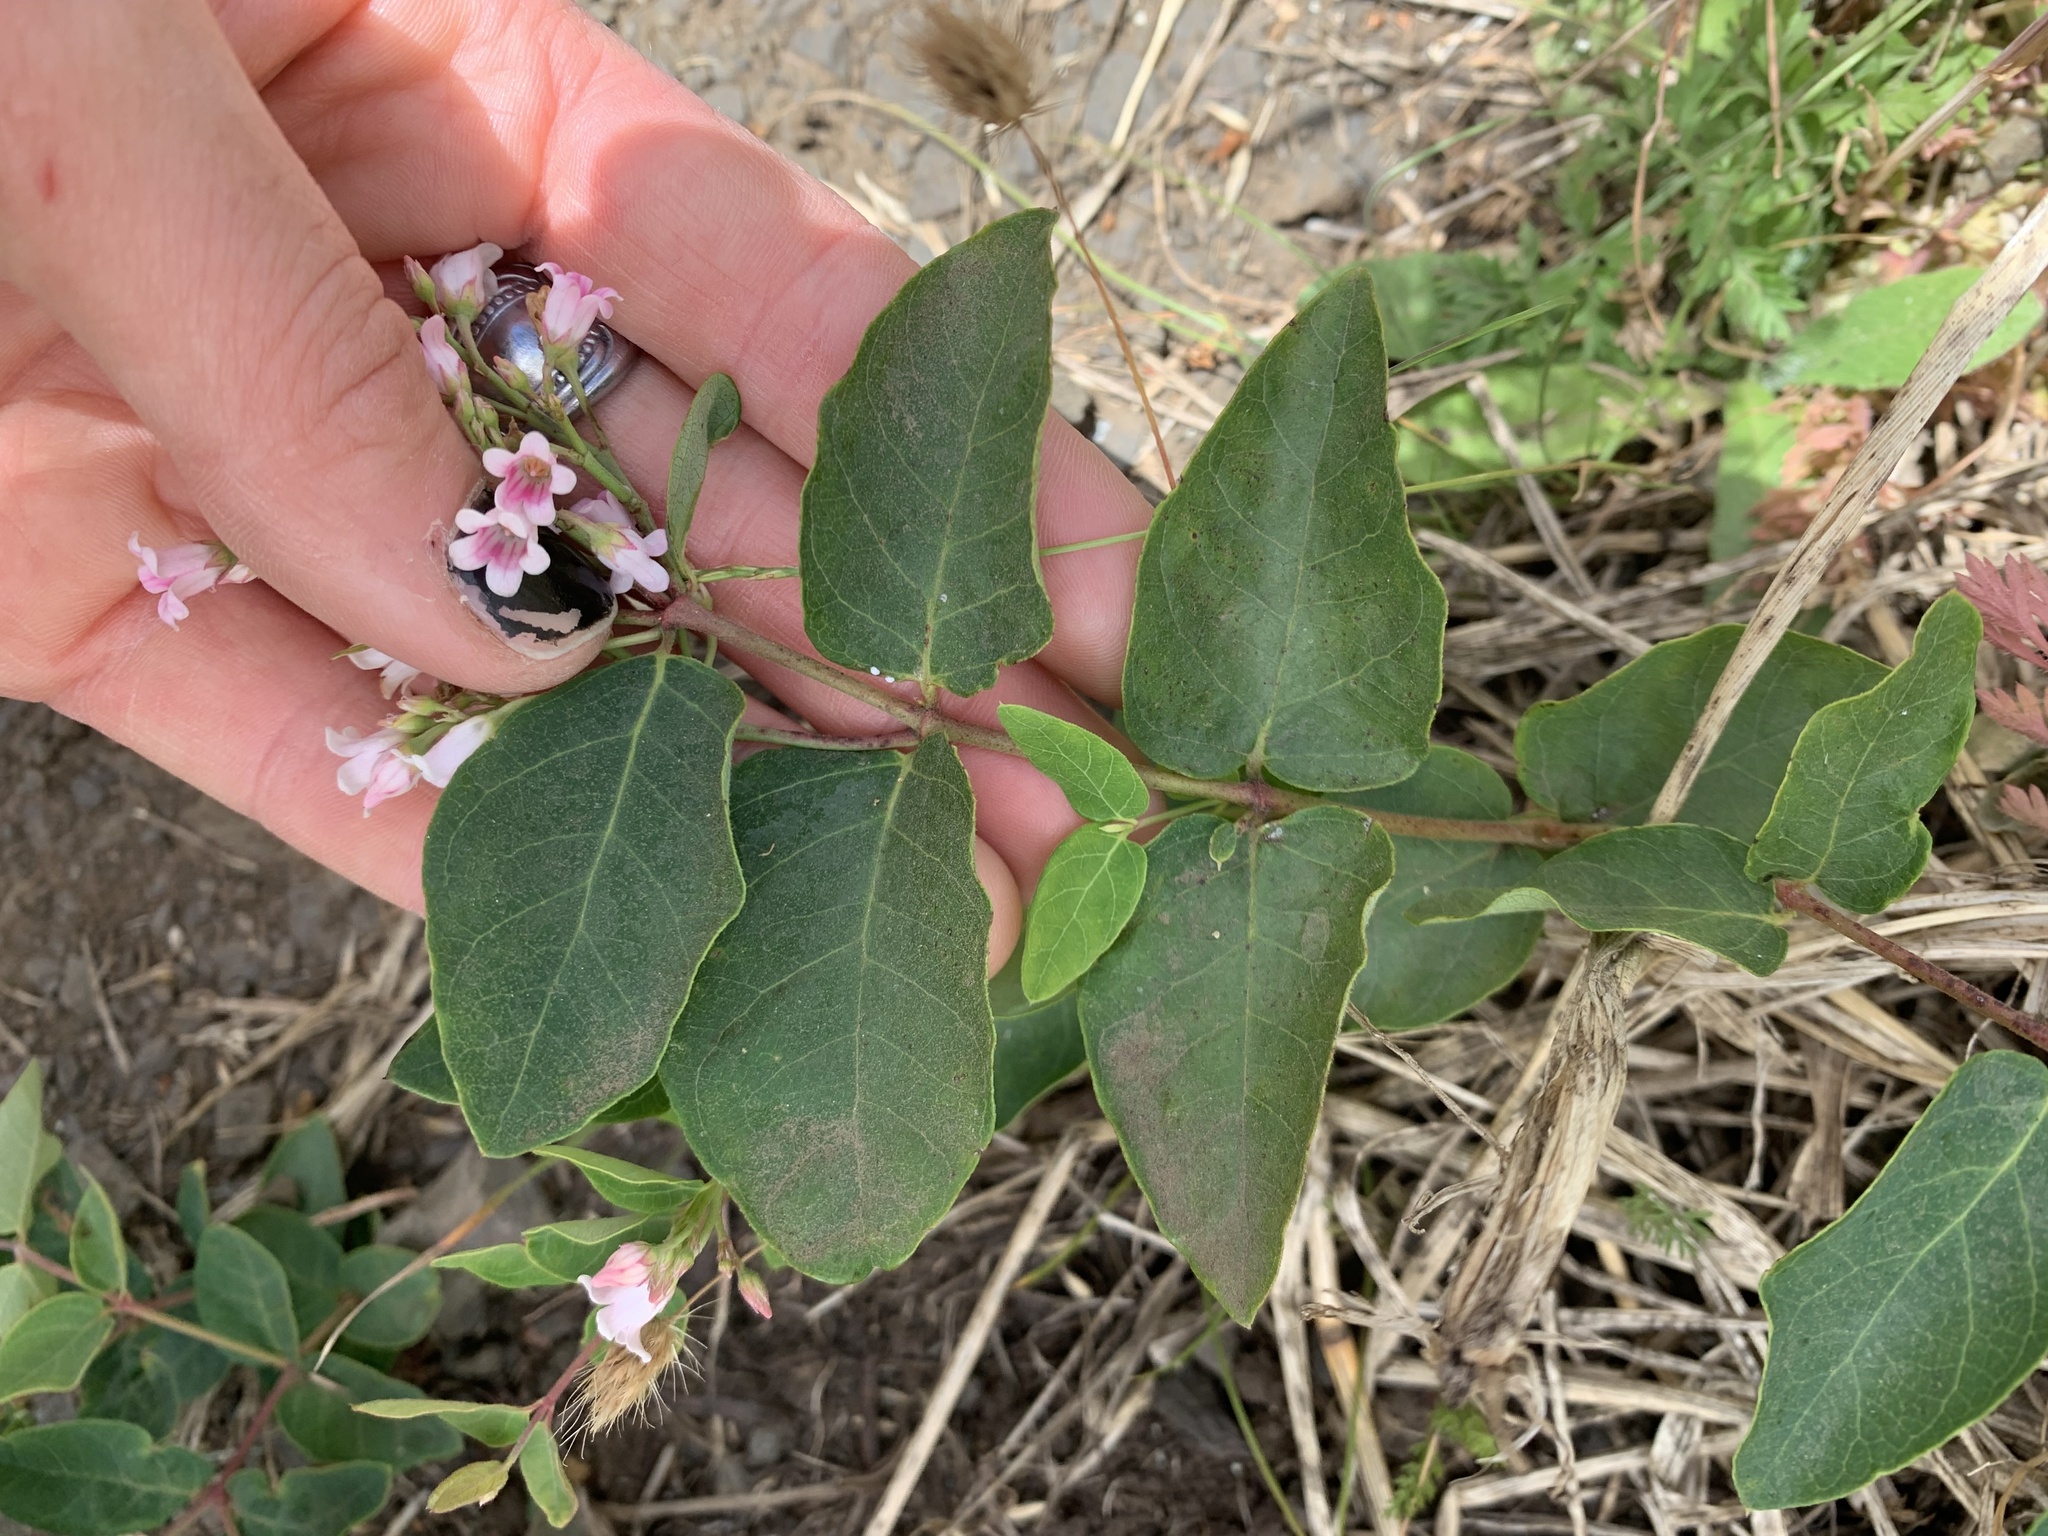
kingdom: Plantae
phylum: Tracheophyta
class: Magnoliopsida
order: Gentianales
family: Apocynaceae
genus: Apocynum
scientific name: Apocynum androsaemifolium
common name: Spreading dogbane
